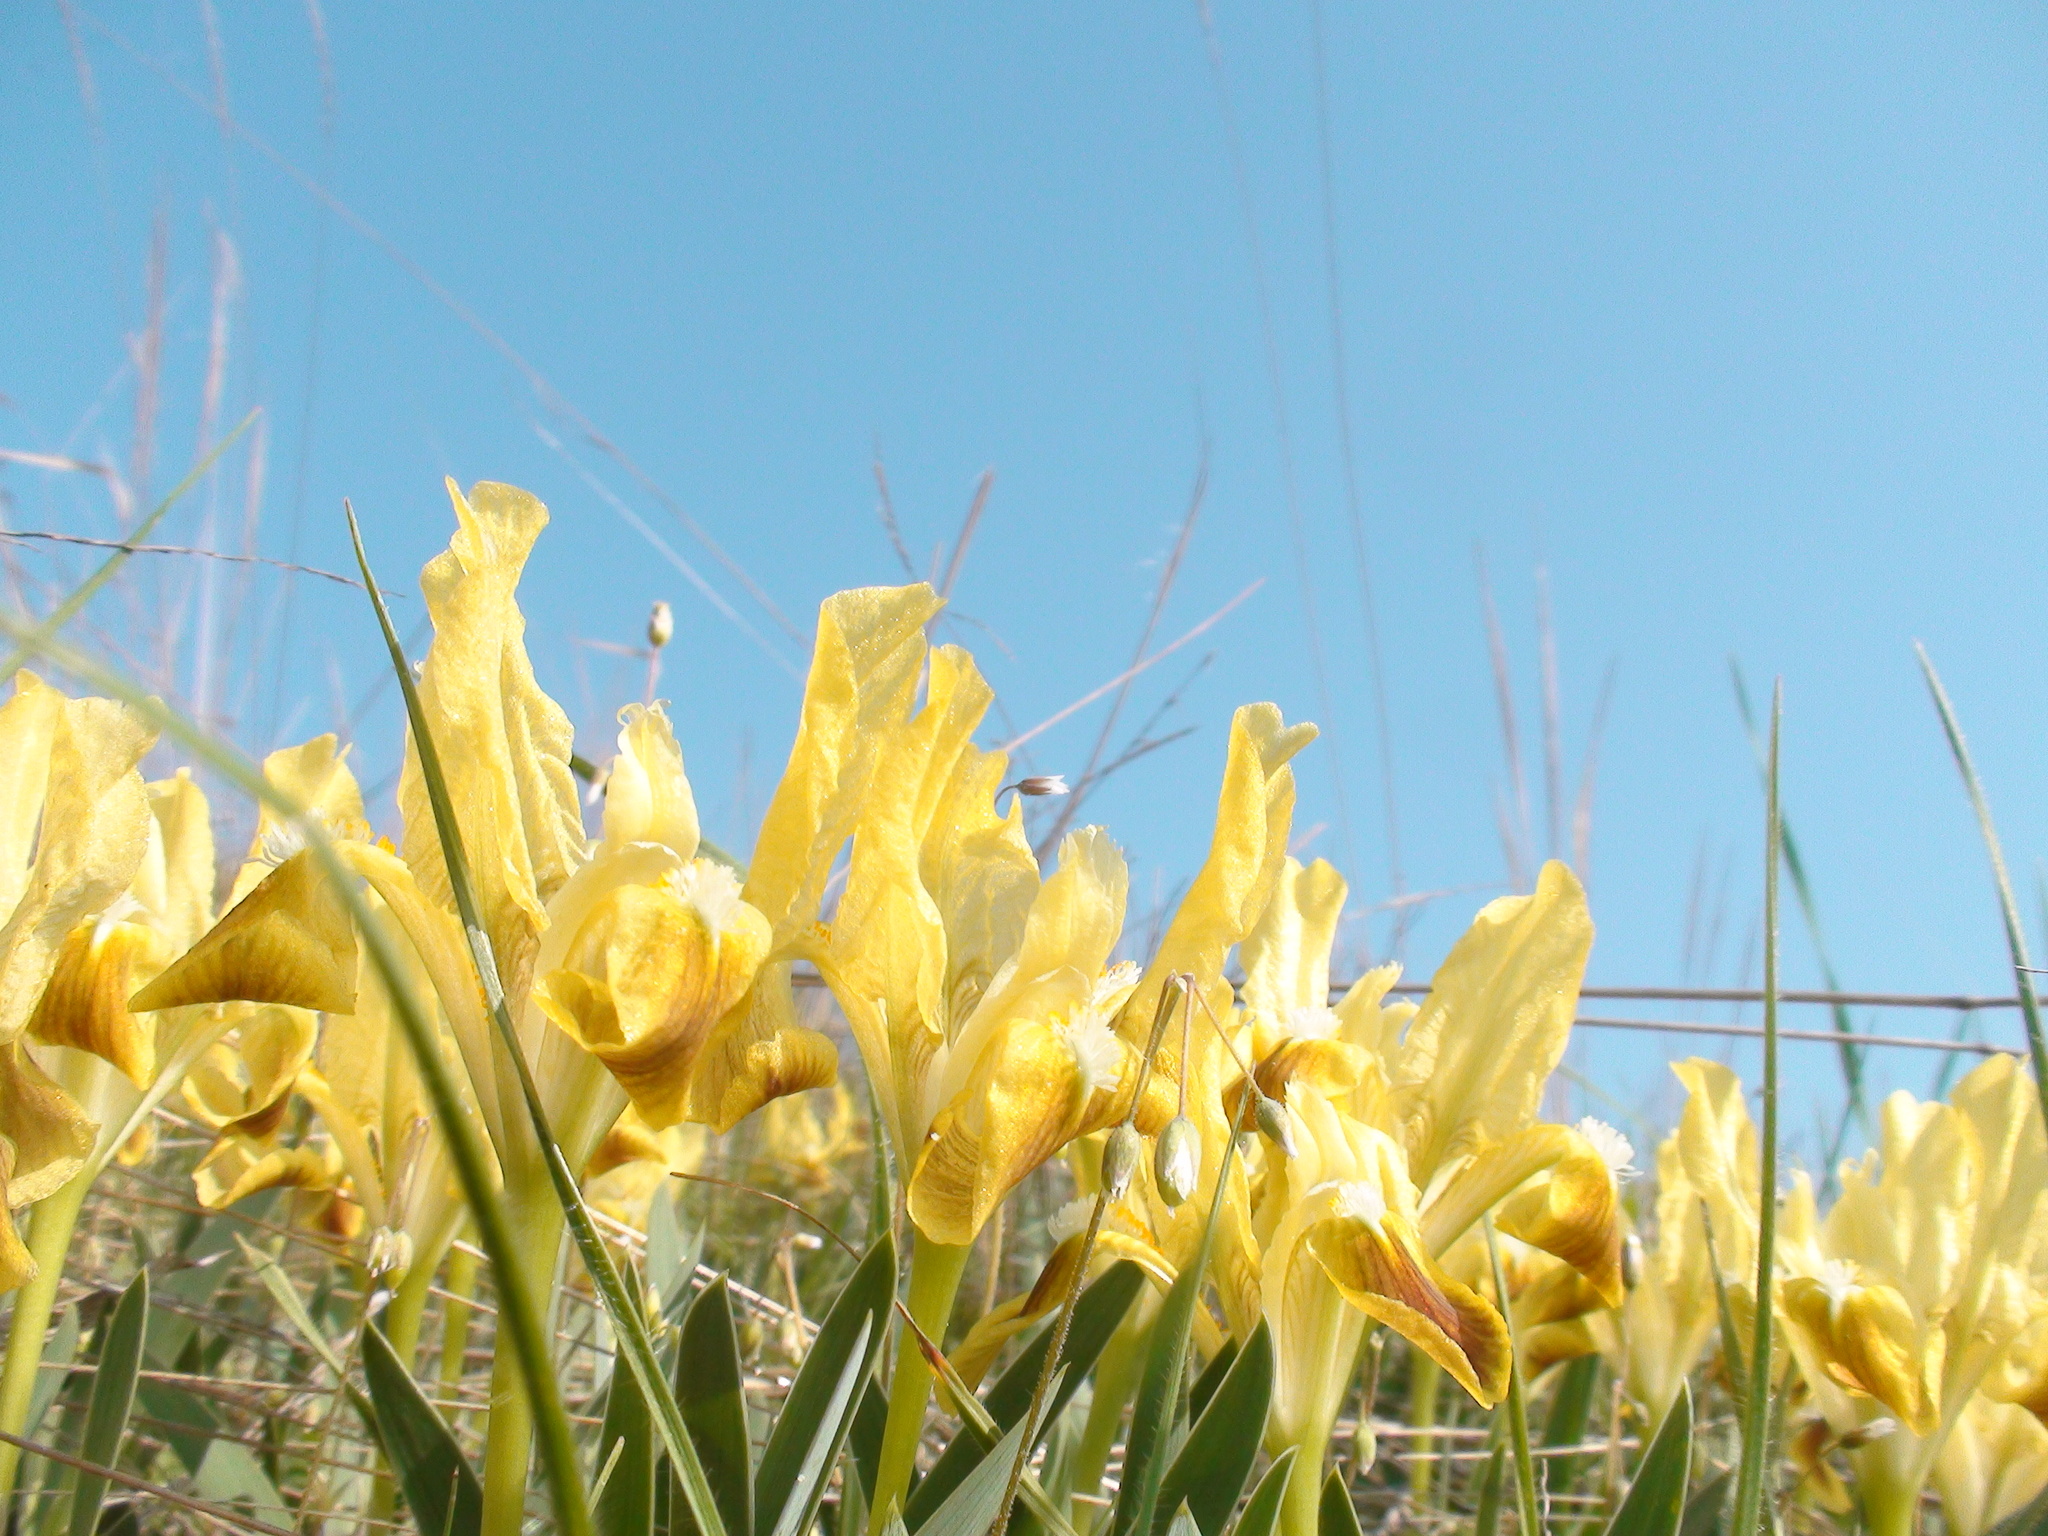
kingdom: Plantae
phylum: Tracheophyta
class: Liliopsida
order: Asparagales
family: Iridaceae
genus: Iris
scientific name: Iris pumila
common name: Dwarf iris
